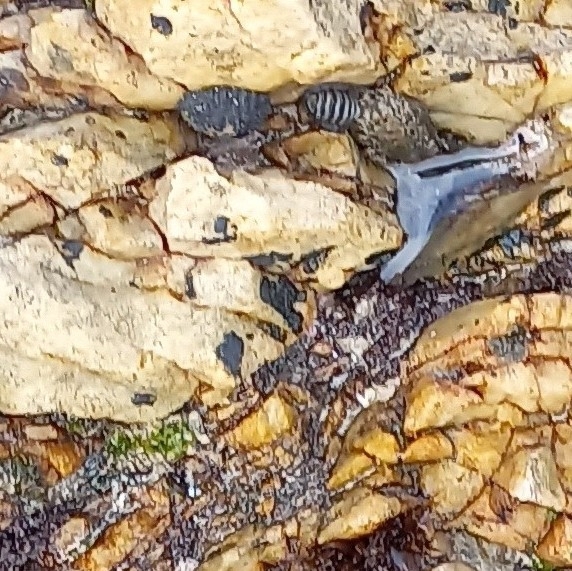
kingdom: Animalia
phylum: Mollusca
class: Polyplacophora
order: Chitonida
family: Chitonidae
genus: Radsia
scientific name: Radsia nigrovirescens
